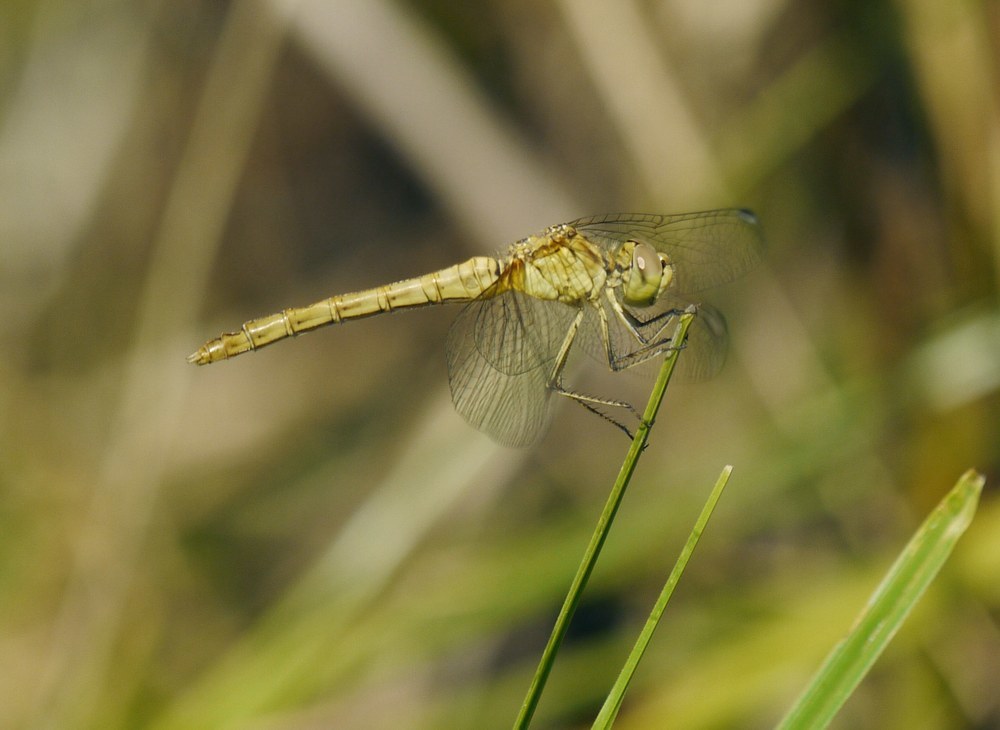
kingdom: Animalia
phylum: Arthropoda
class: Insecta
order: Odonata
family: Libellulidae
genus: Sympetrum
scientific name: Sympetrum meridionale
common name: Southern darter
